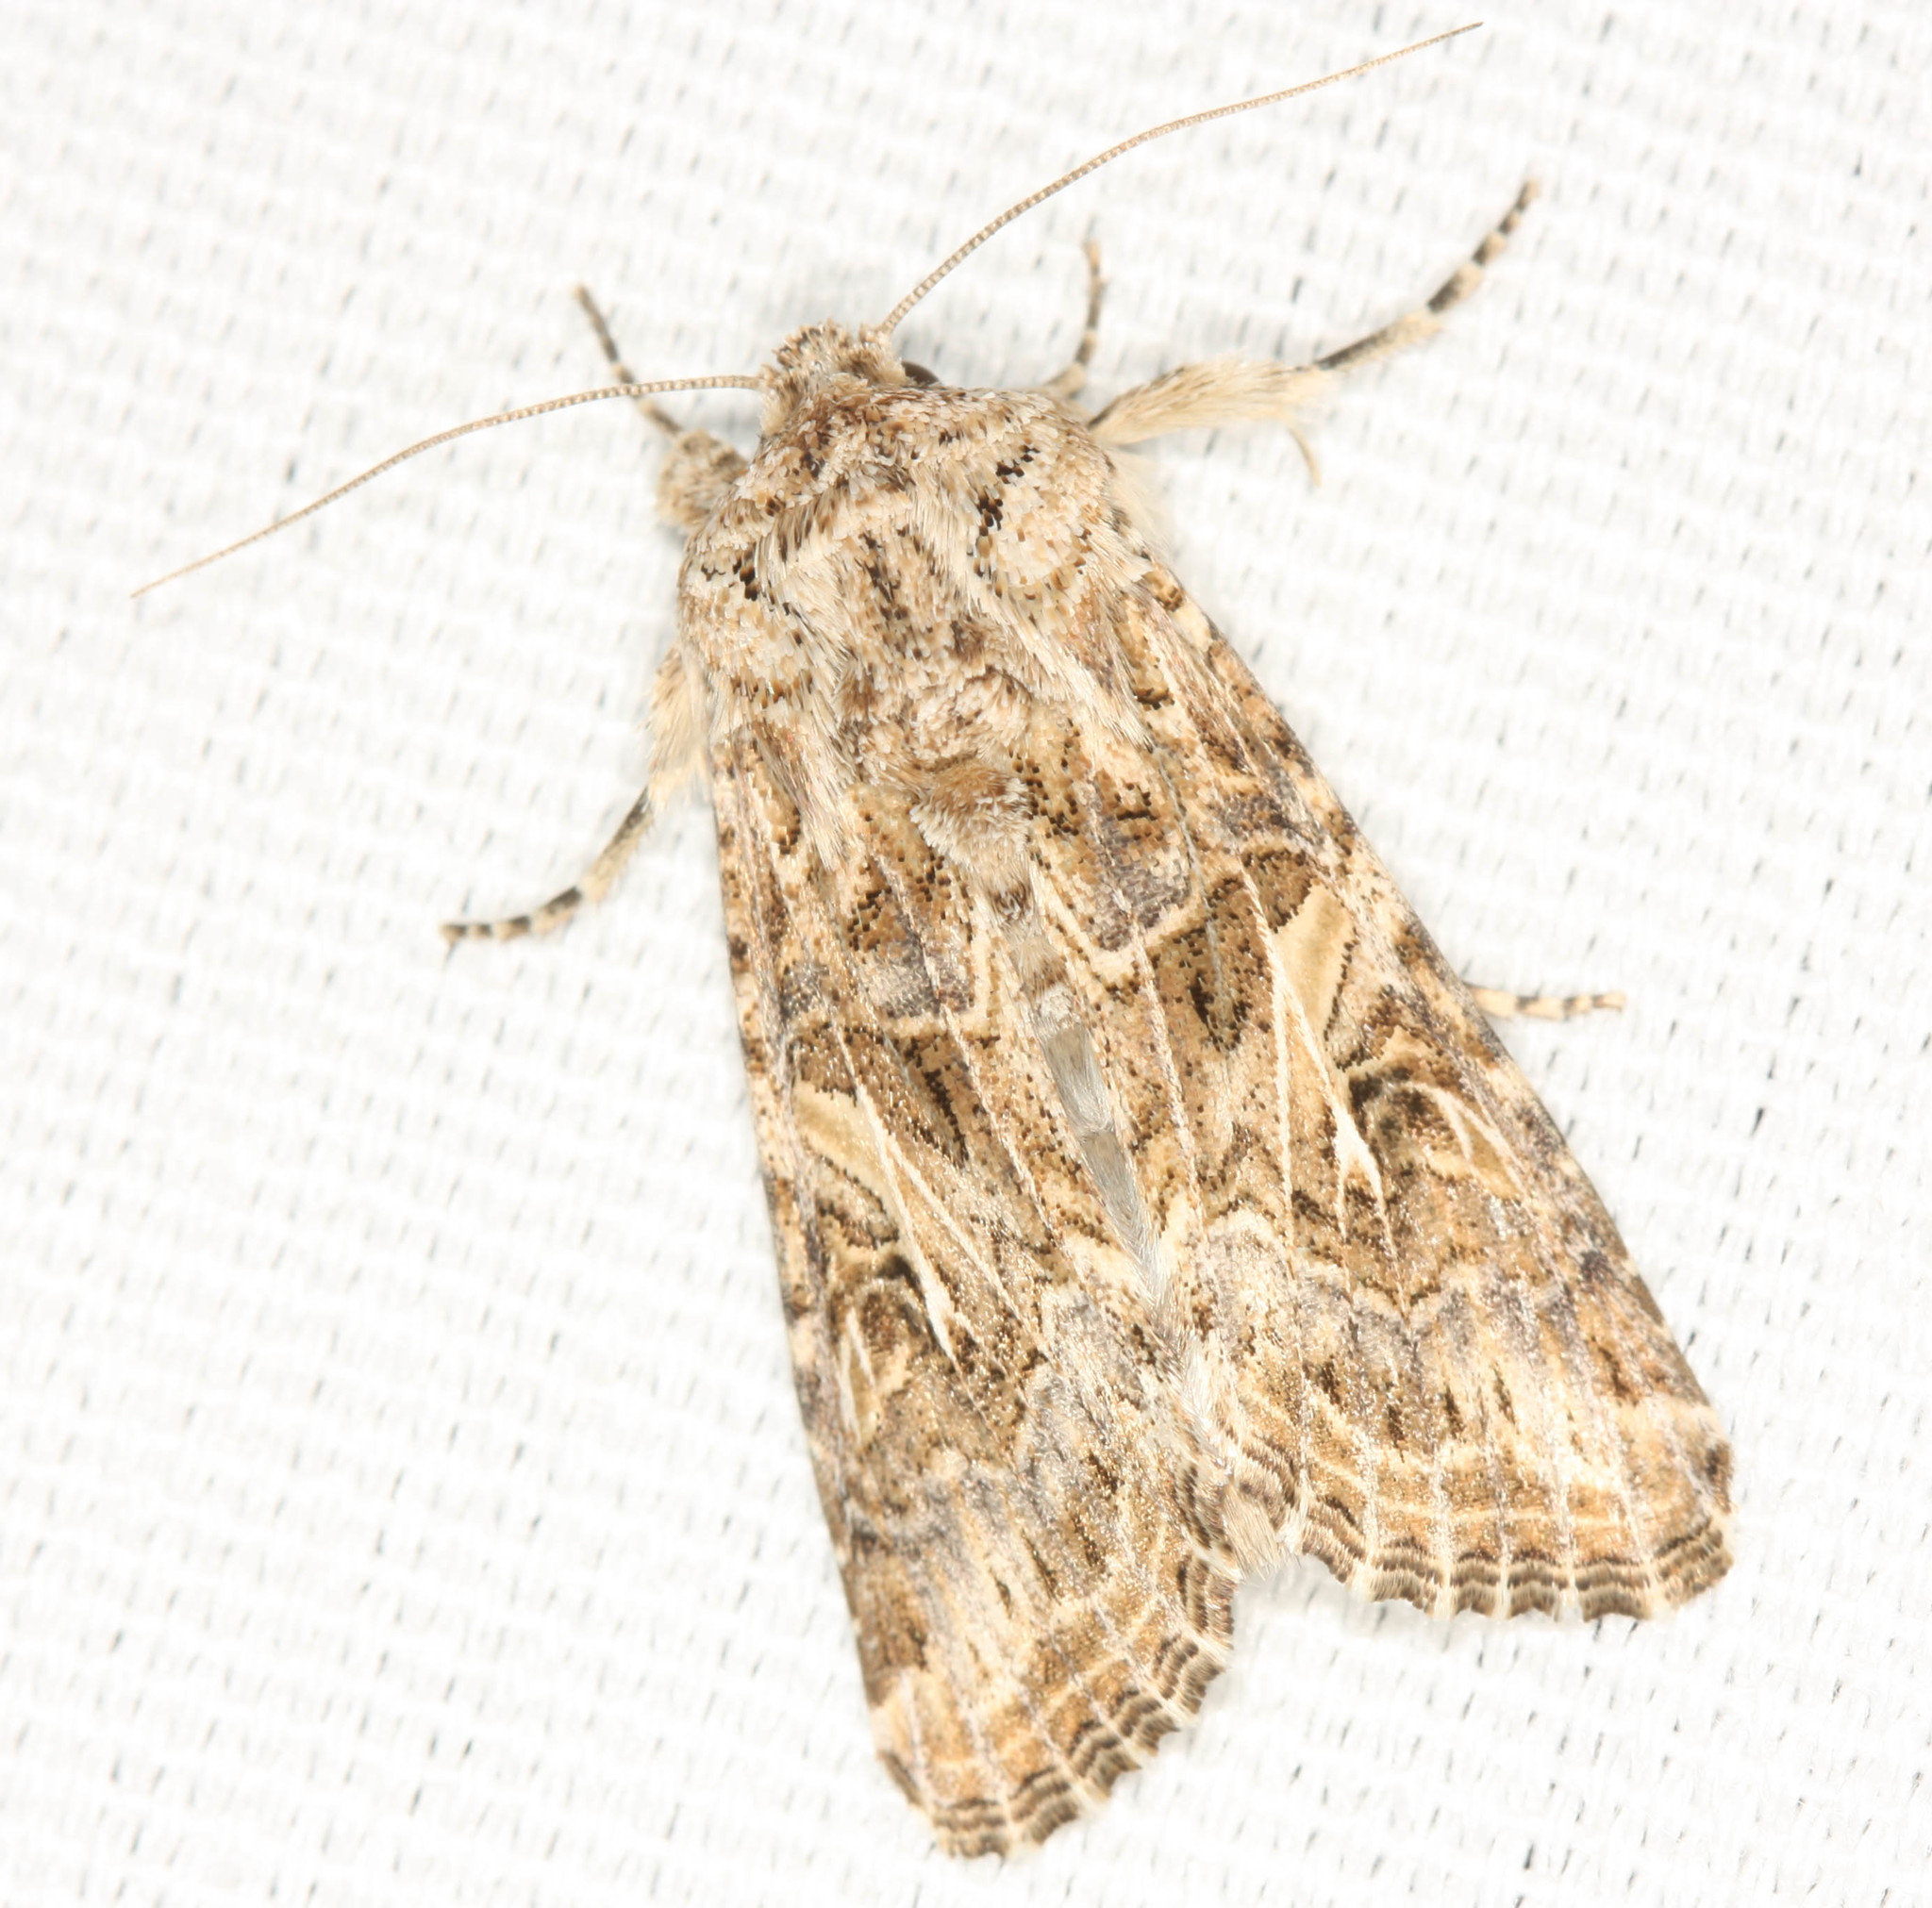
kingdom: Animalia
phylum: Arthropoda
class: Insecta
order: Lepidoptera
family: Noctuidae
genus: Spodoptera
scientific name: Spodoptera praefica
